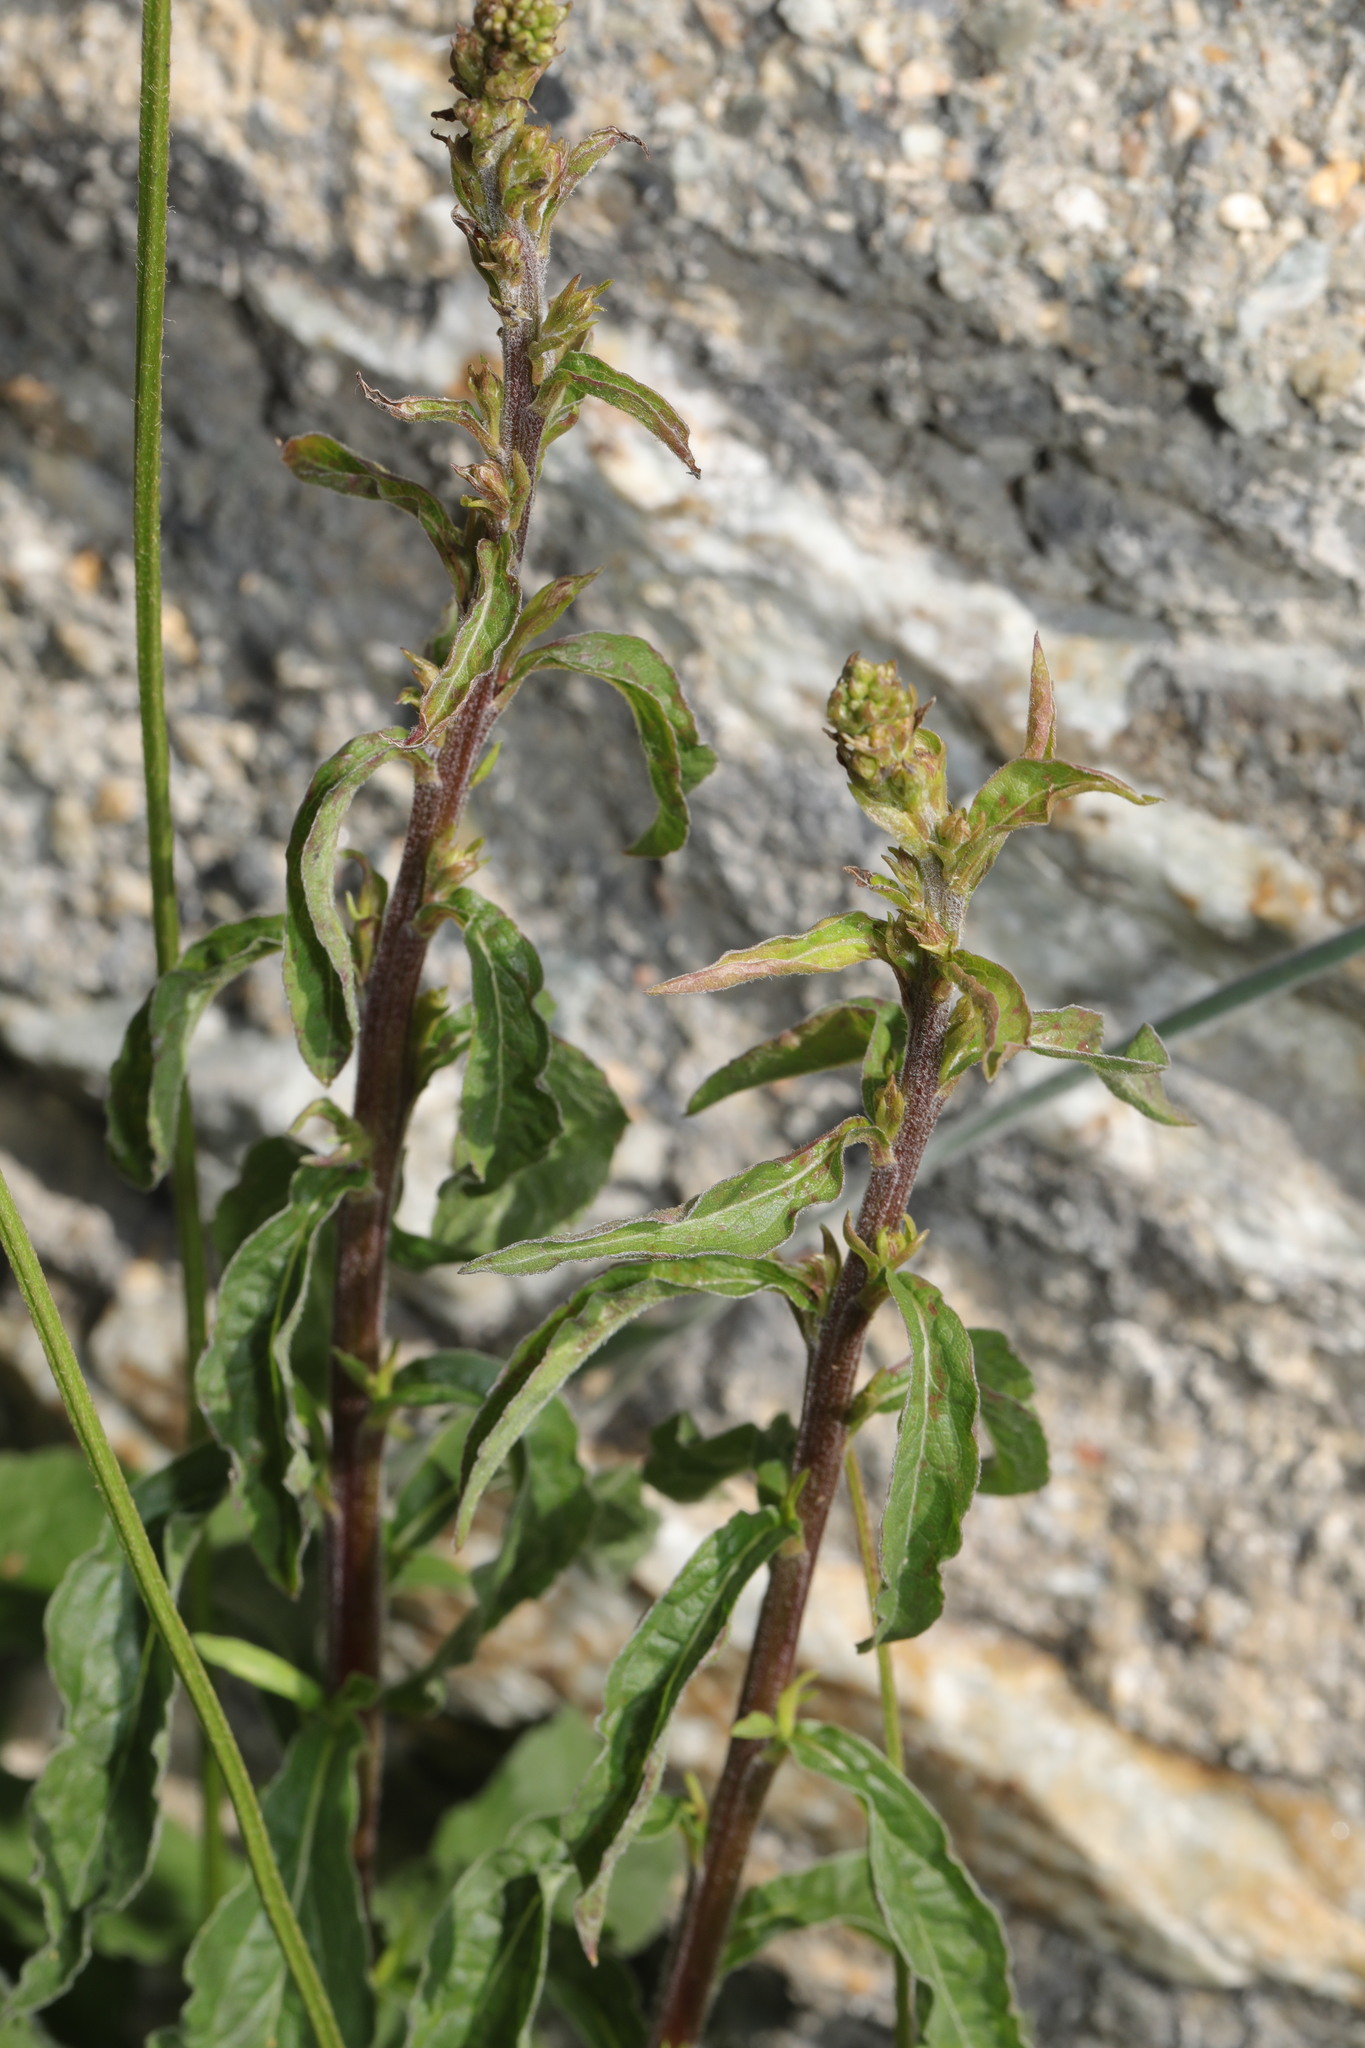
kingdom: Plantae
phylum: Tracheophyta
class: Magnoliopsida
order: Caryophyllales
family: Amaranthaceae
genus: Beta
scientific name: Beta vulgaris
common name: Beet
